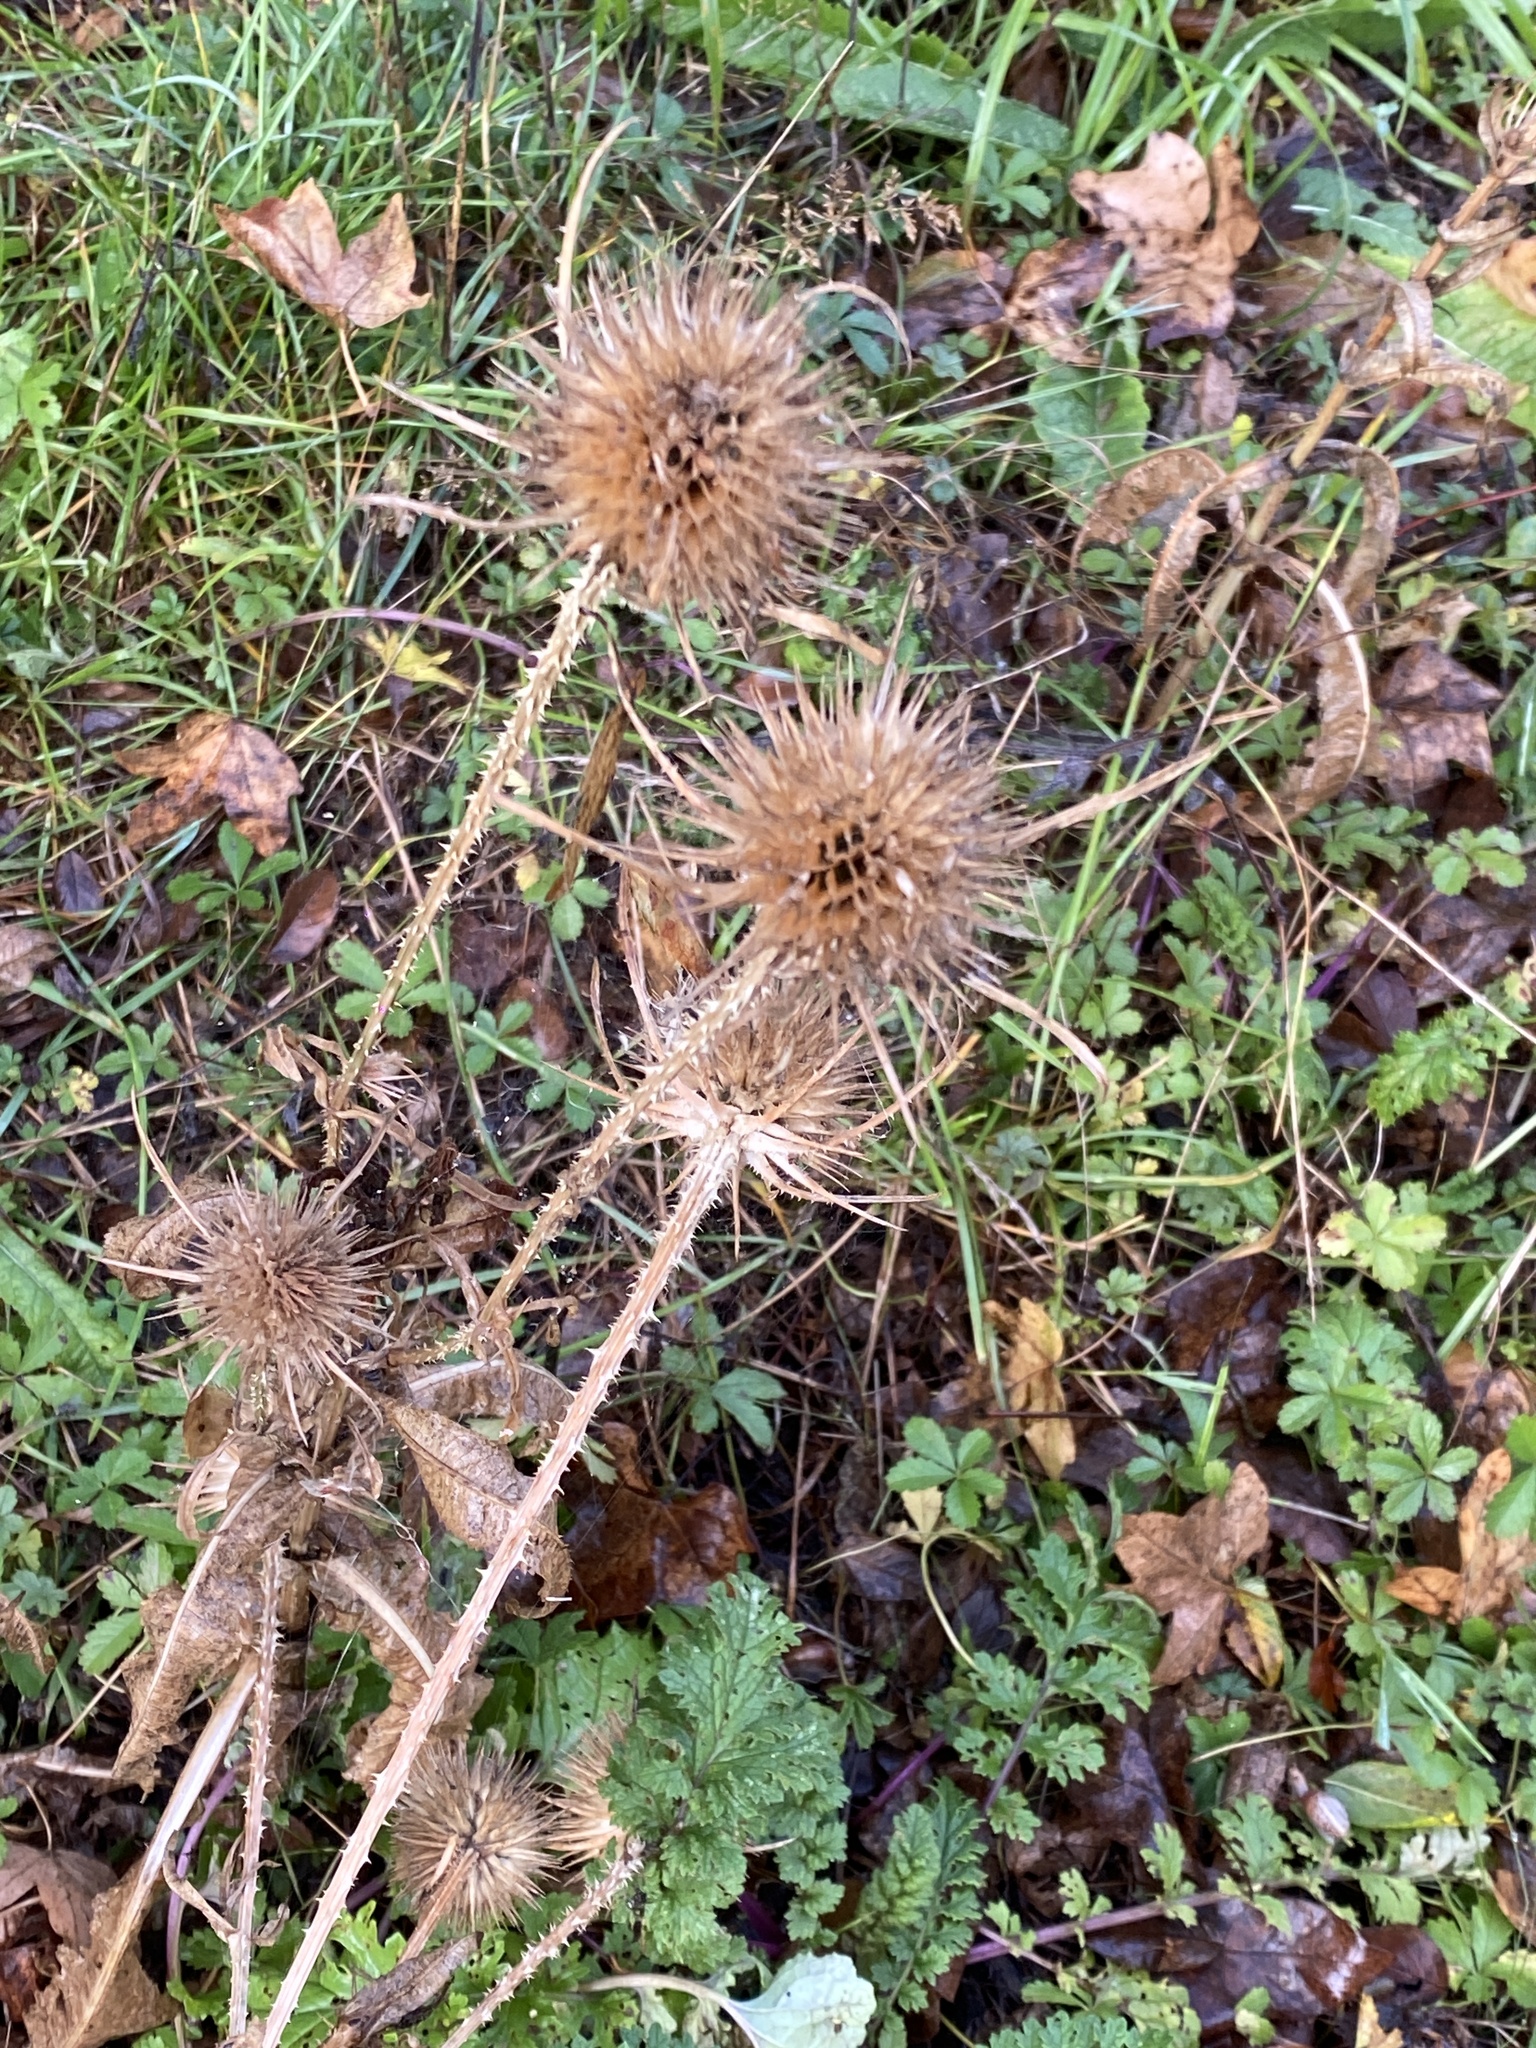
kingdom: Plantae
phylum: Tracheophyta
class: Magnoliopsida
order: Dipsacales
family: Caprifoliaceae
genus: Dipsacus
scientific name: Dipsacus fullonum
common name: Teasel
